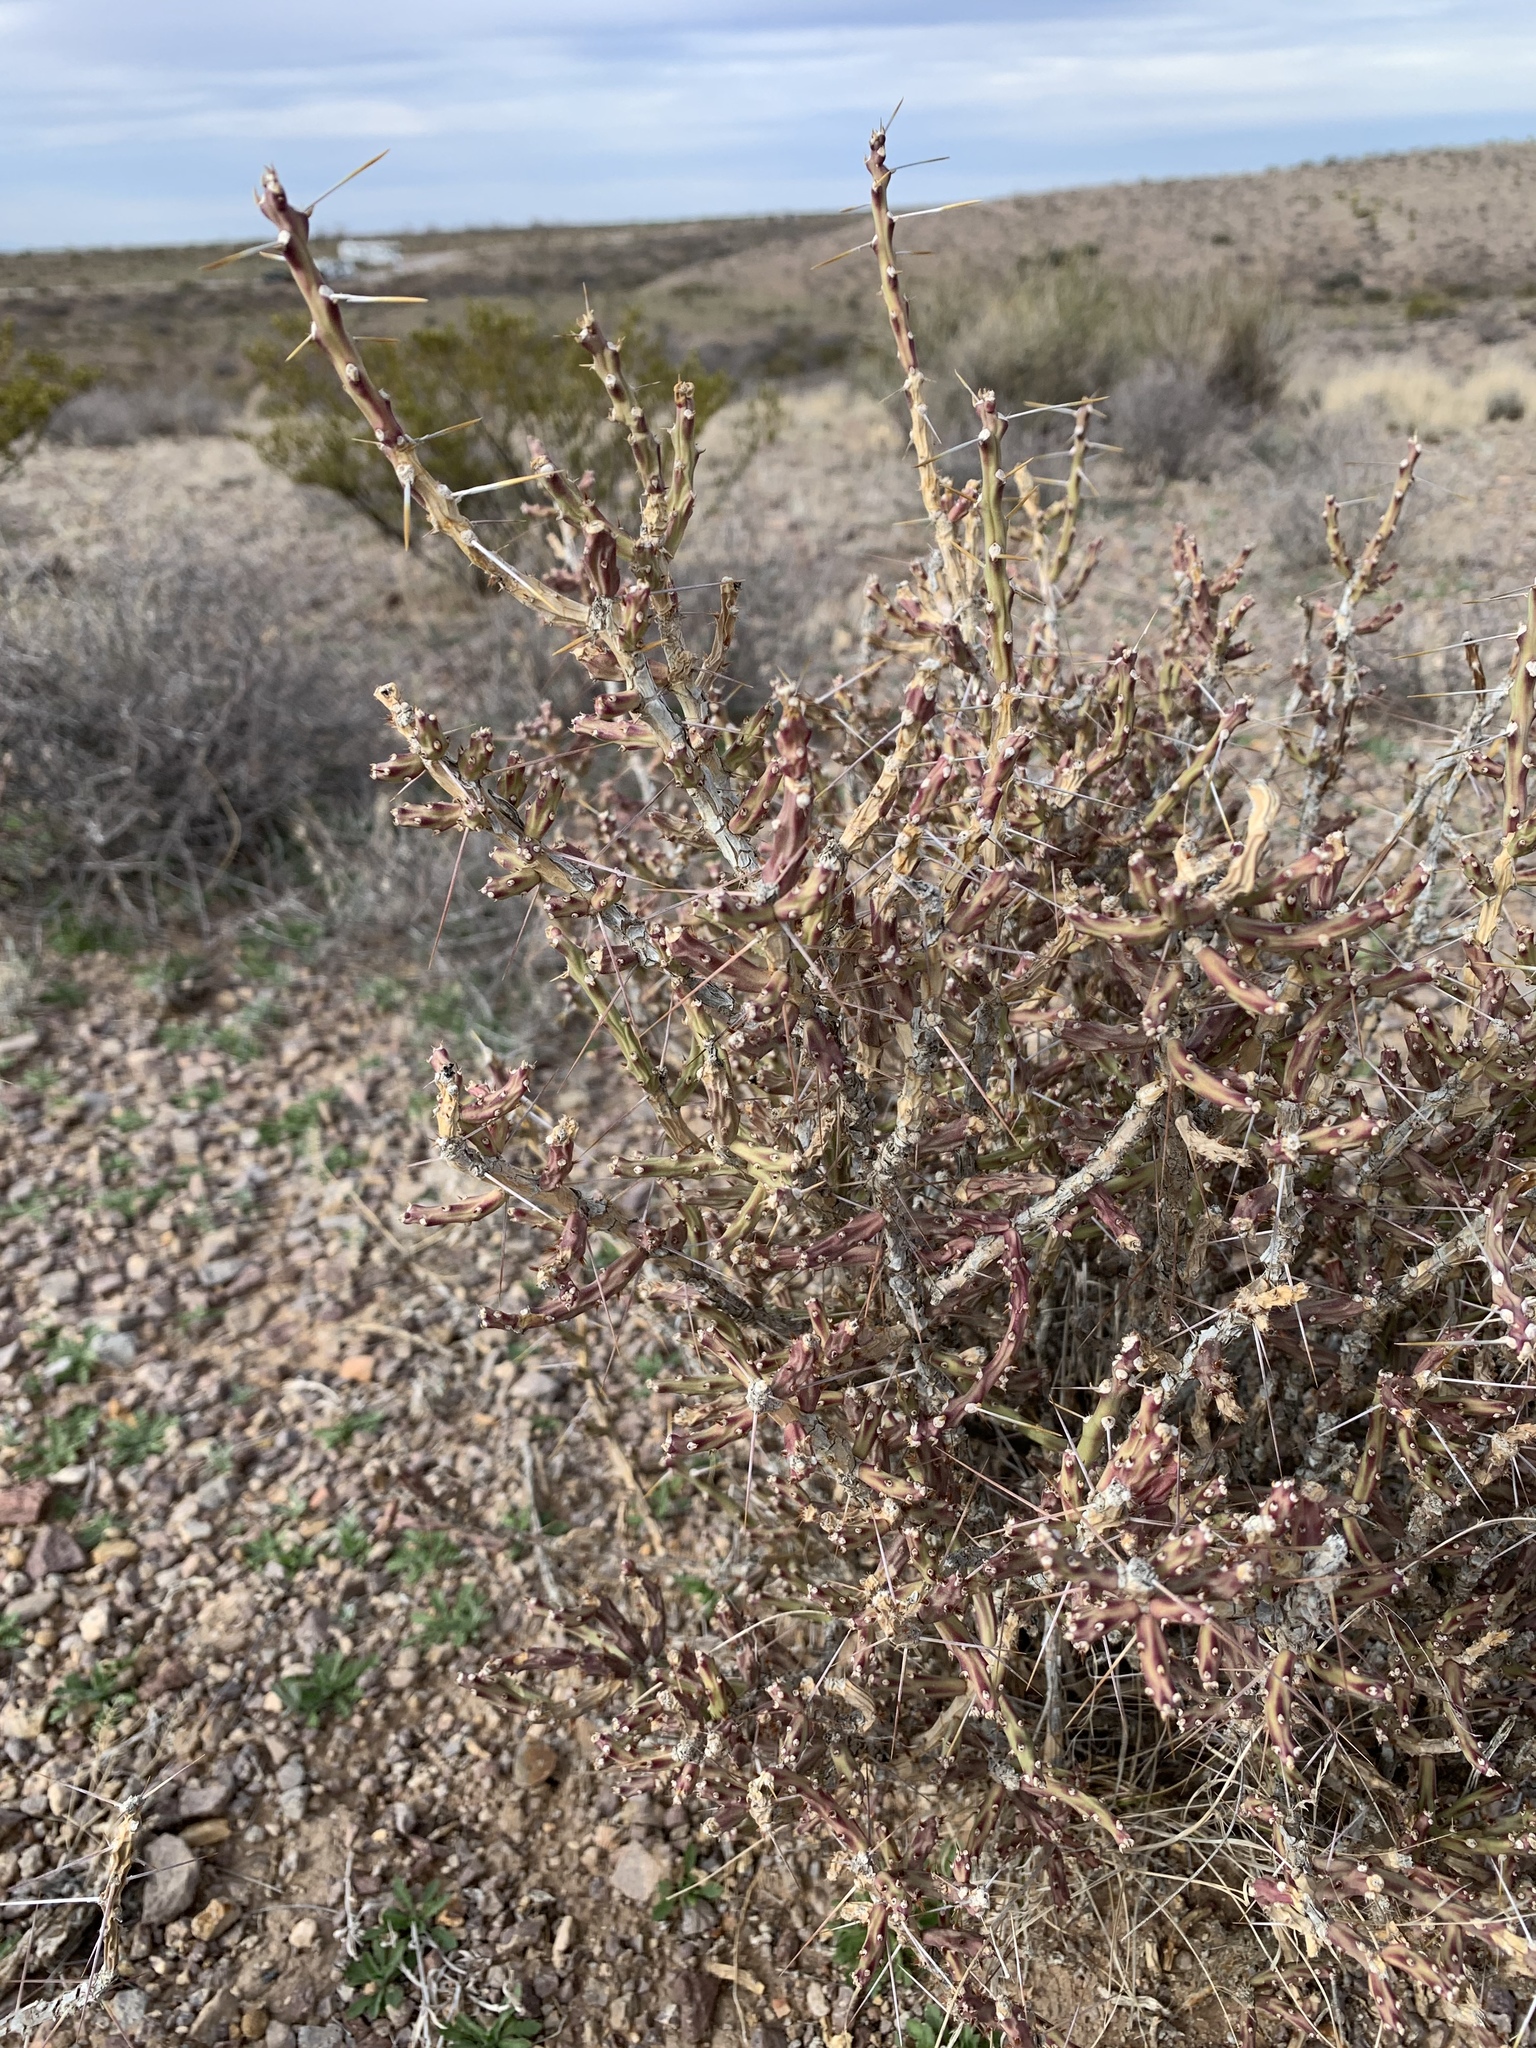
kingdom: Plantae
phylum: Tracheophyta
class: Magnoliopsida
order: Caryophyllales
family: Cactaceae
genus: Cylindropuntia
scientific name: Cylindropuntia leptocaulis
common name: Christmas cactus
